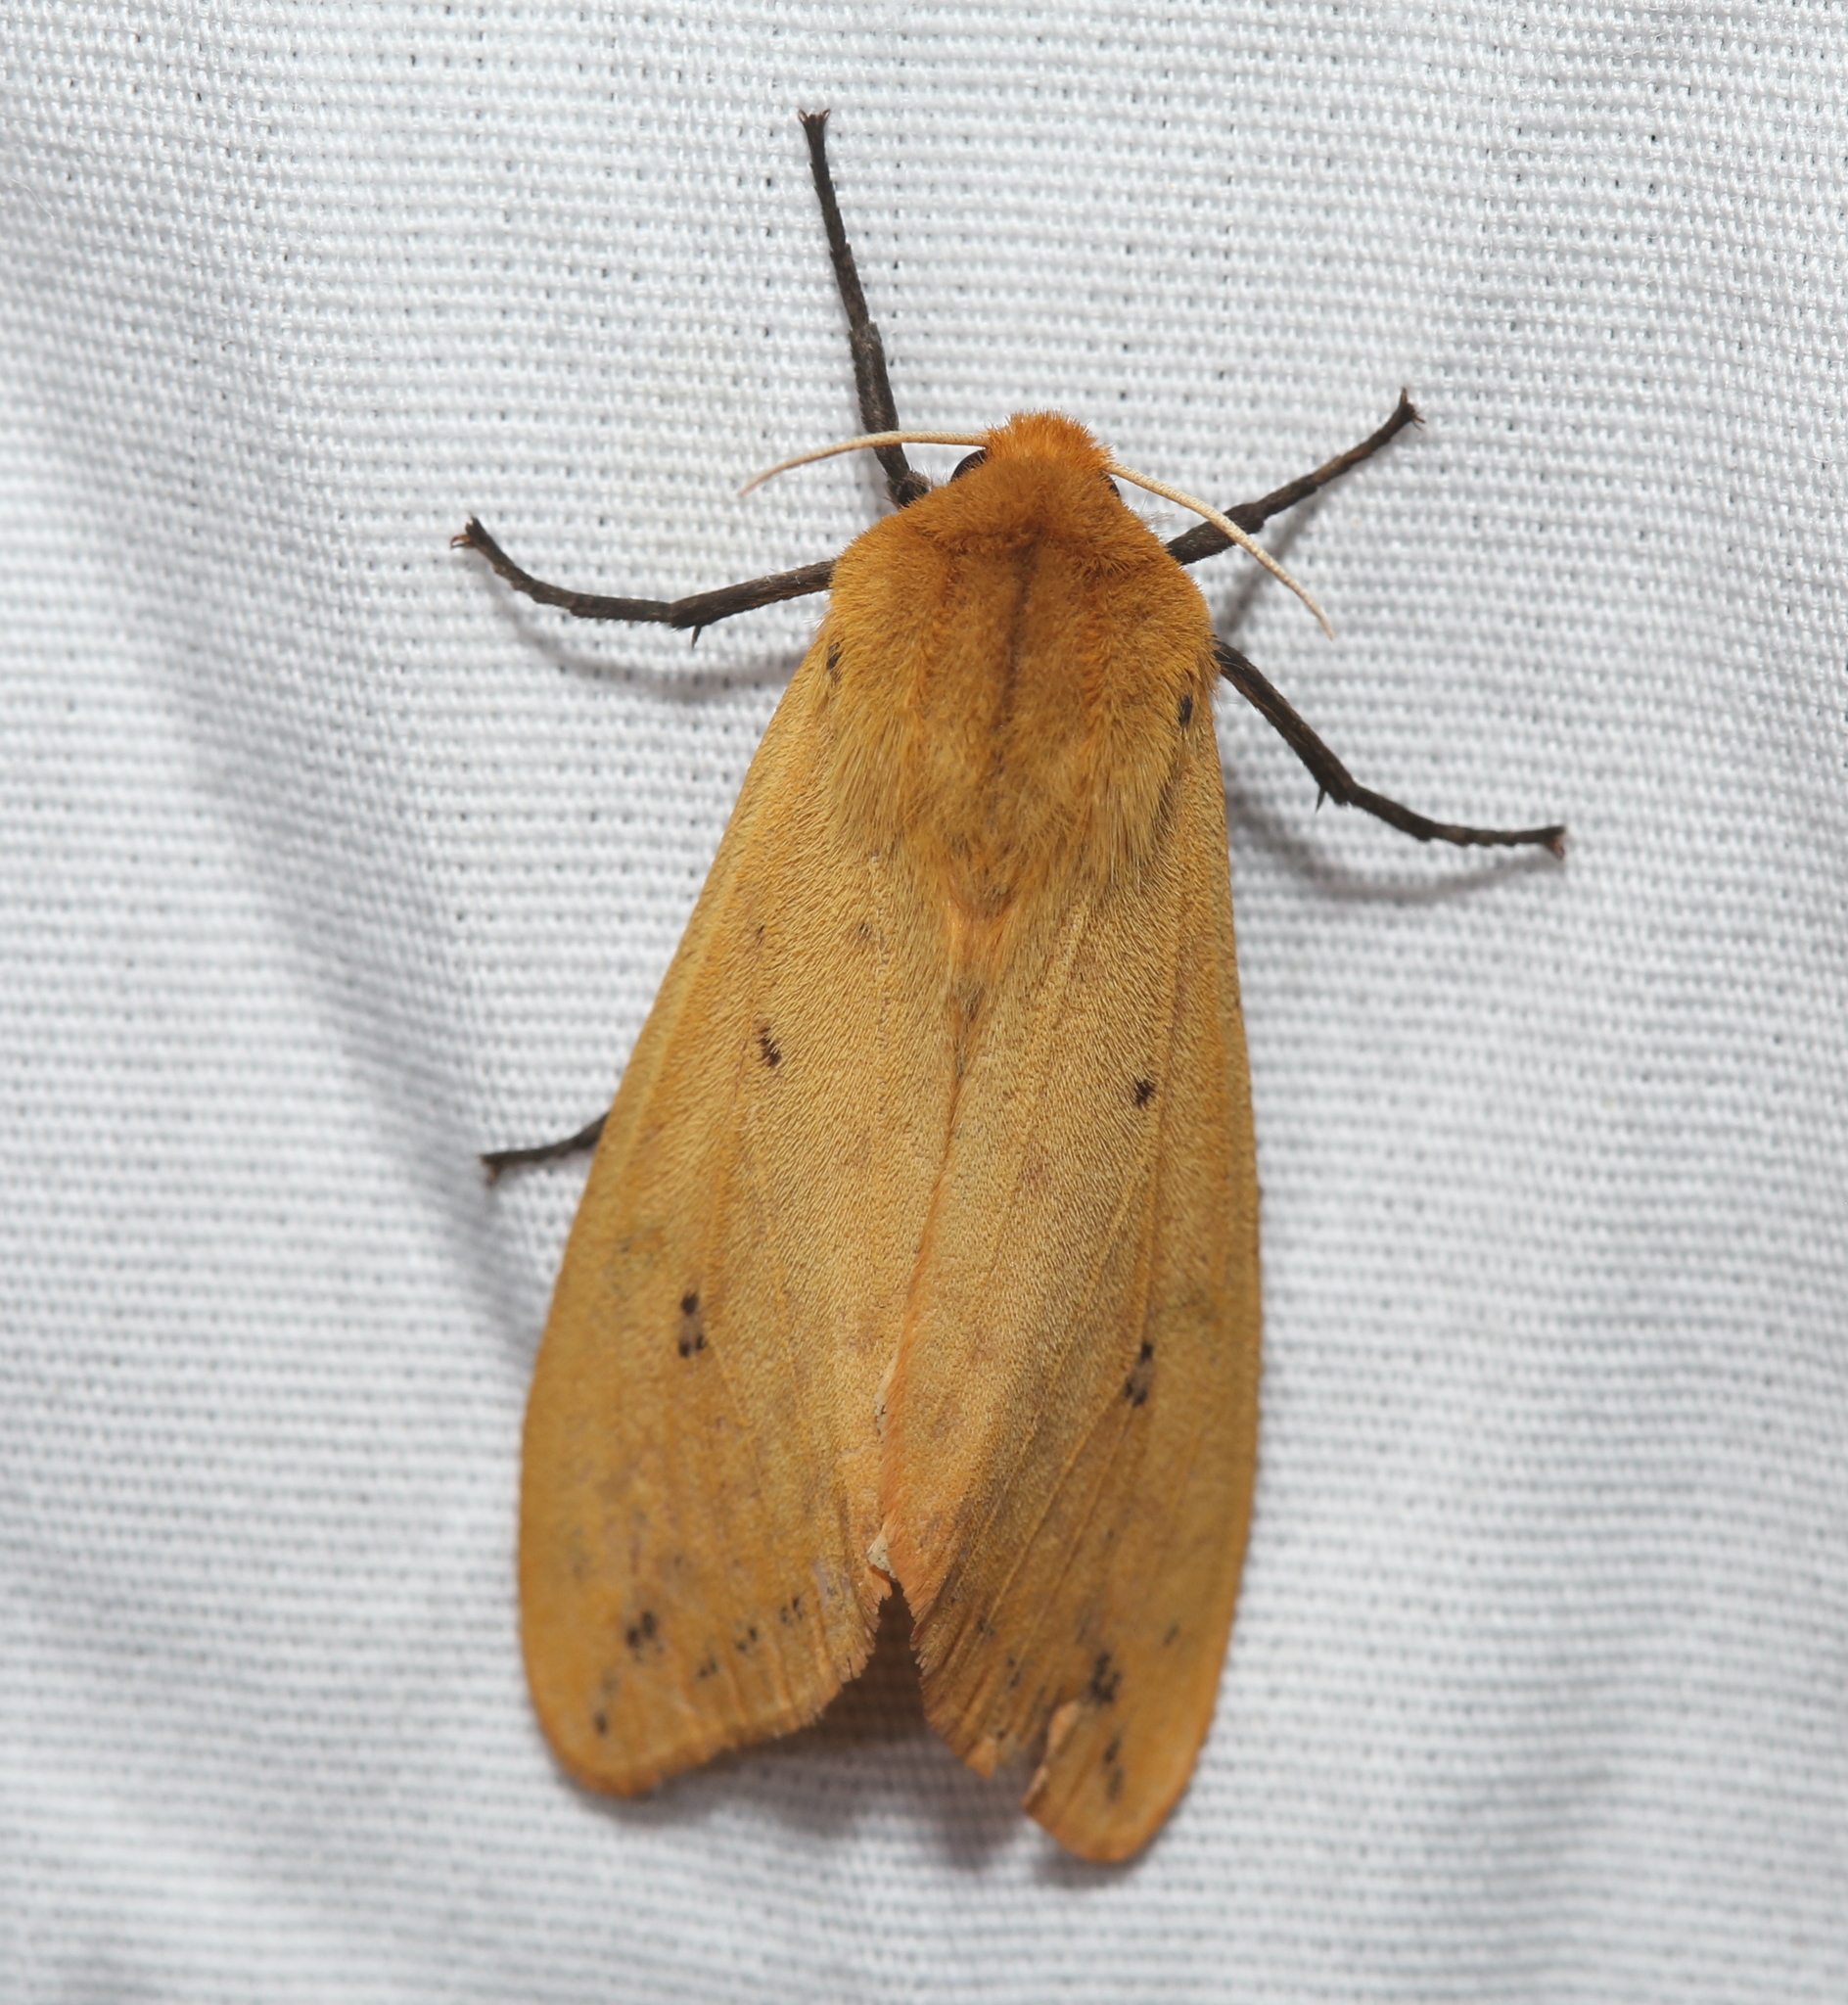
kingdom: Animalia
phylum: Arthropoda
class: Insecta
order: Lepidoptera
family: Erebidae
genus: Pyrrharctia
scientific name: Pyrrharctia isabella
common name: Isabella tiger moth
